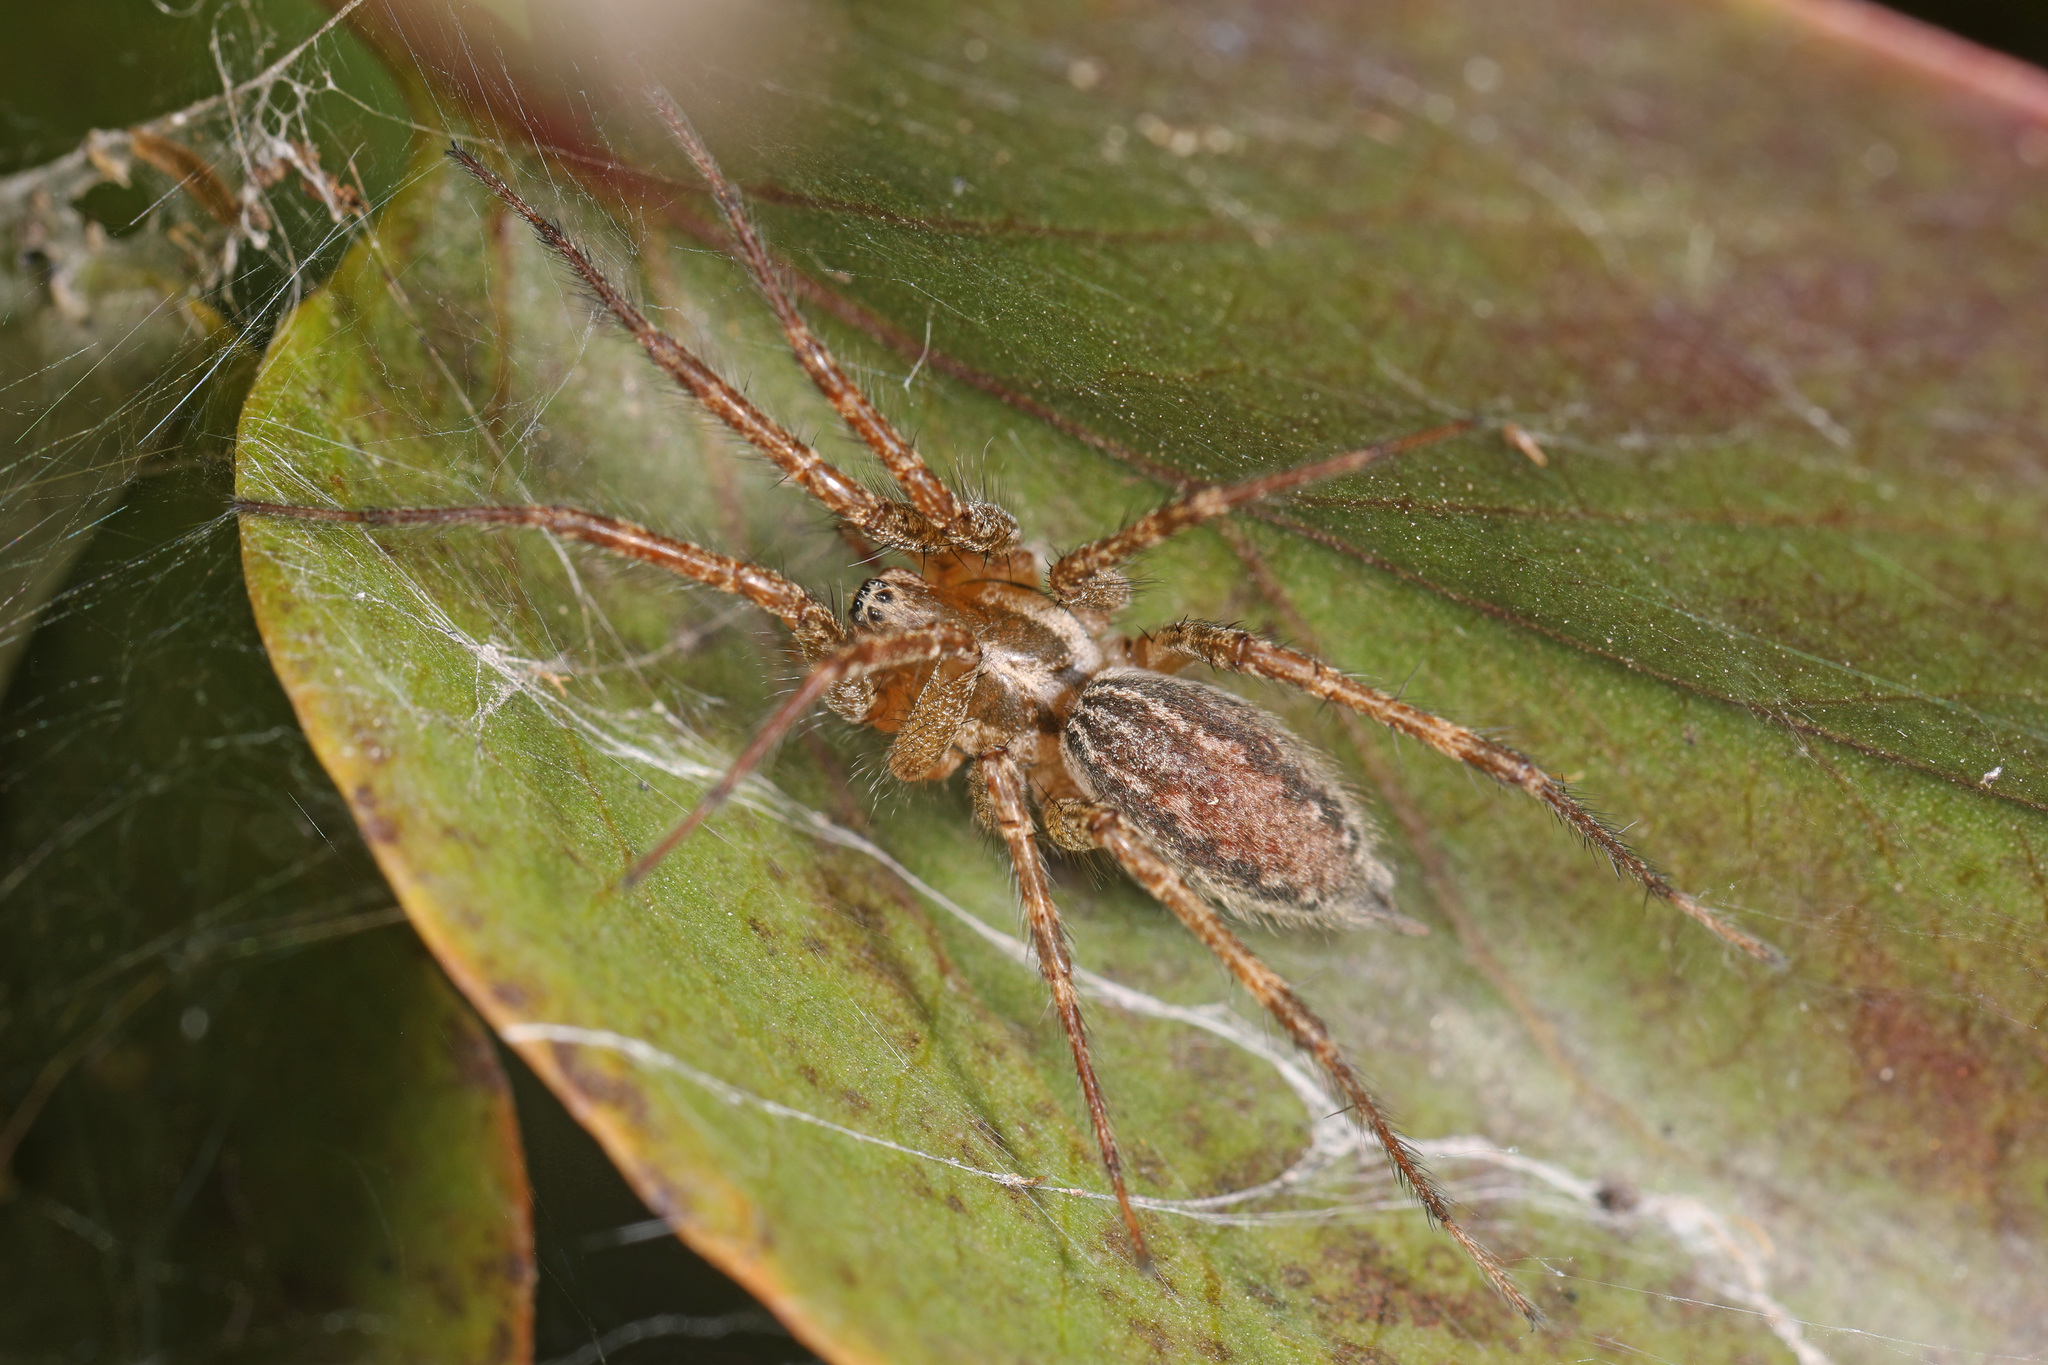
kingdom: Animalia
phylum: Arthropoda
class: Arachnida
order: Araneae
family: Agelenidae
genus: Agelenopsis
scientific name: Agelenopsis
